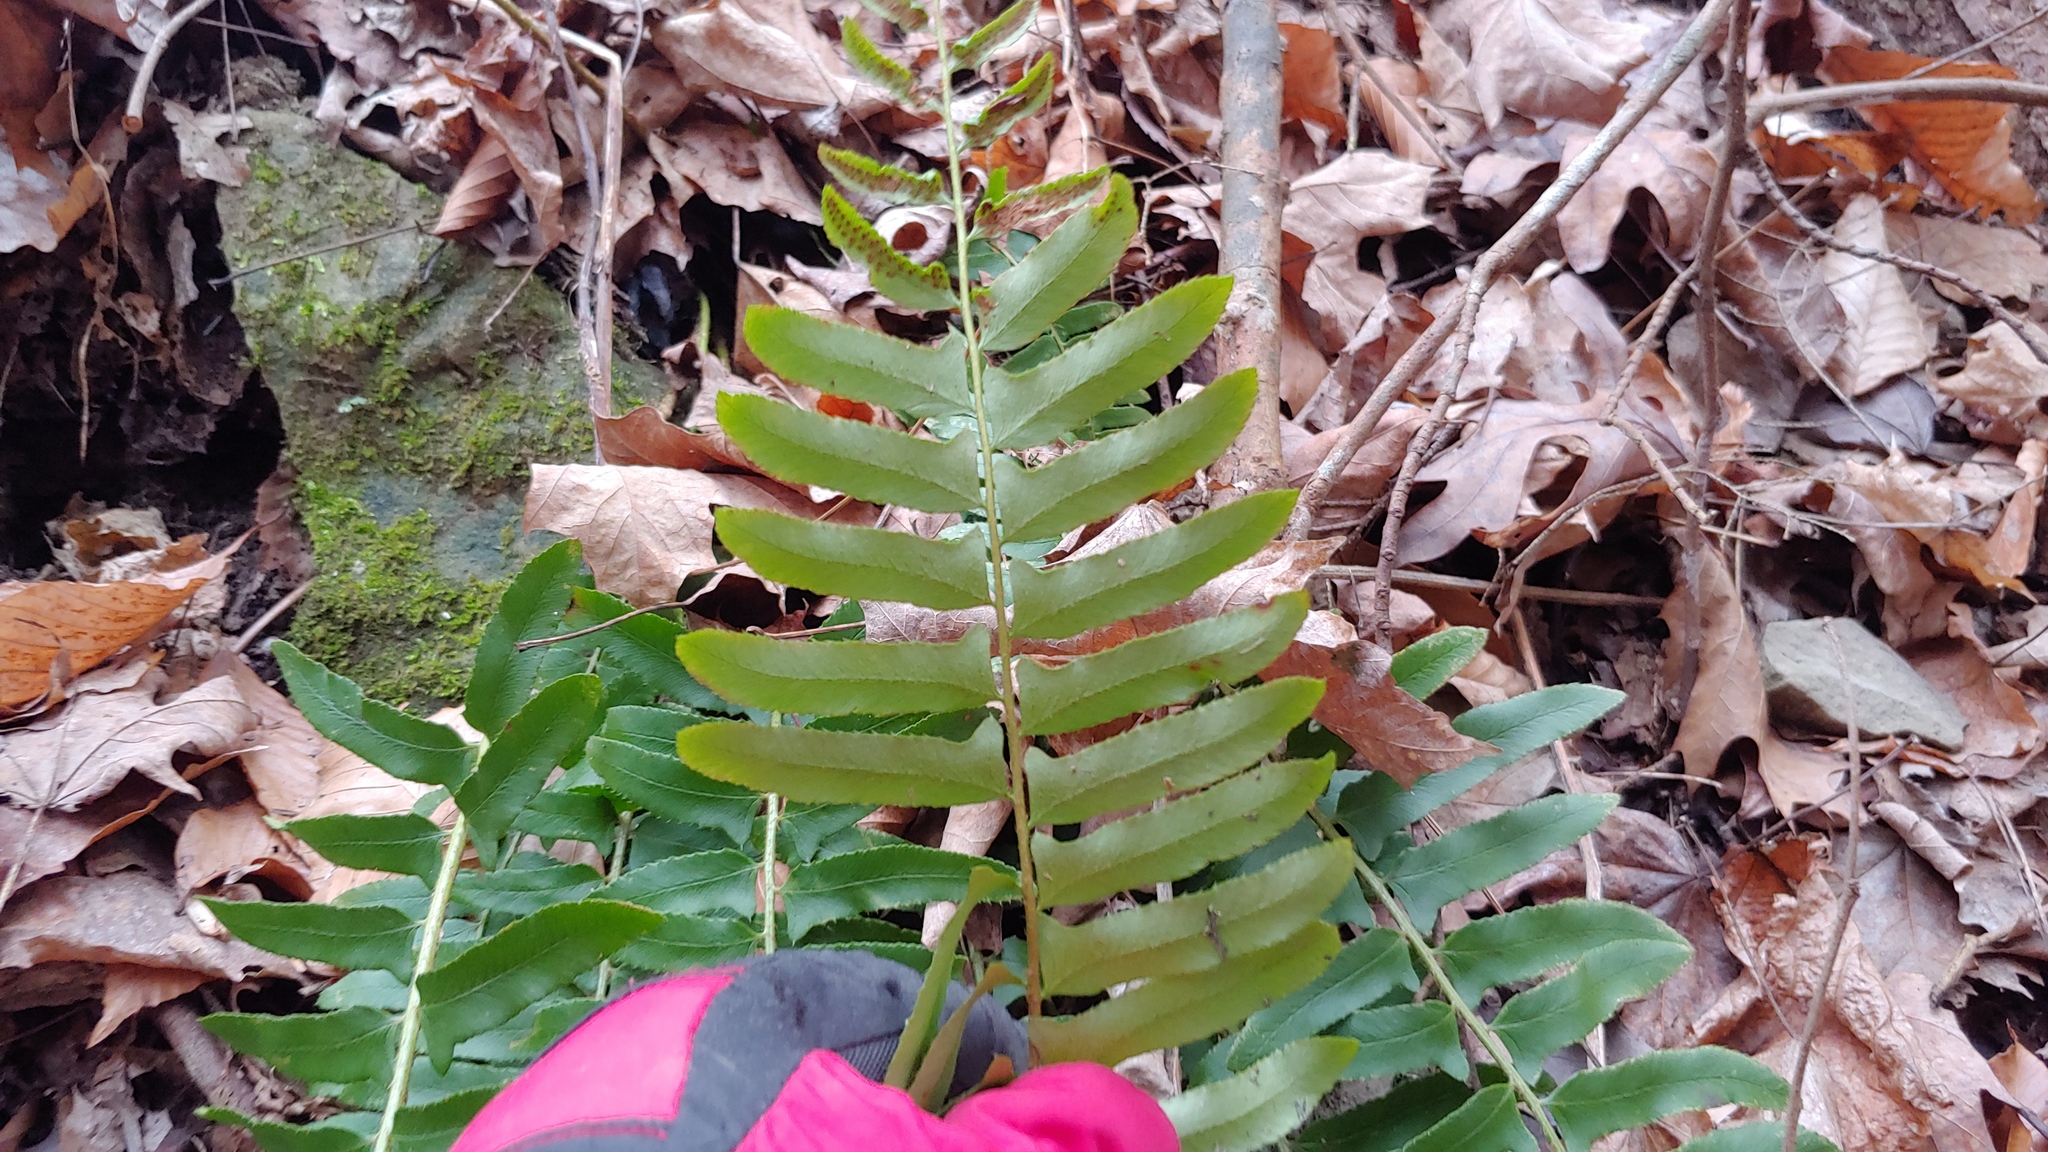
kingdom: Plantae
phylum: Tracheophyta
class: Polypodiopsida
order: Polypodiales
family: Dryopteridaceae
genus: Polystichum
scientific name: Polystichum acrostichoides
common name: Christmas fern
